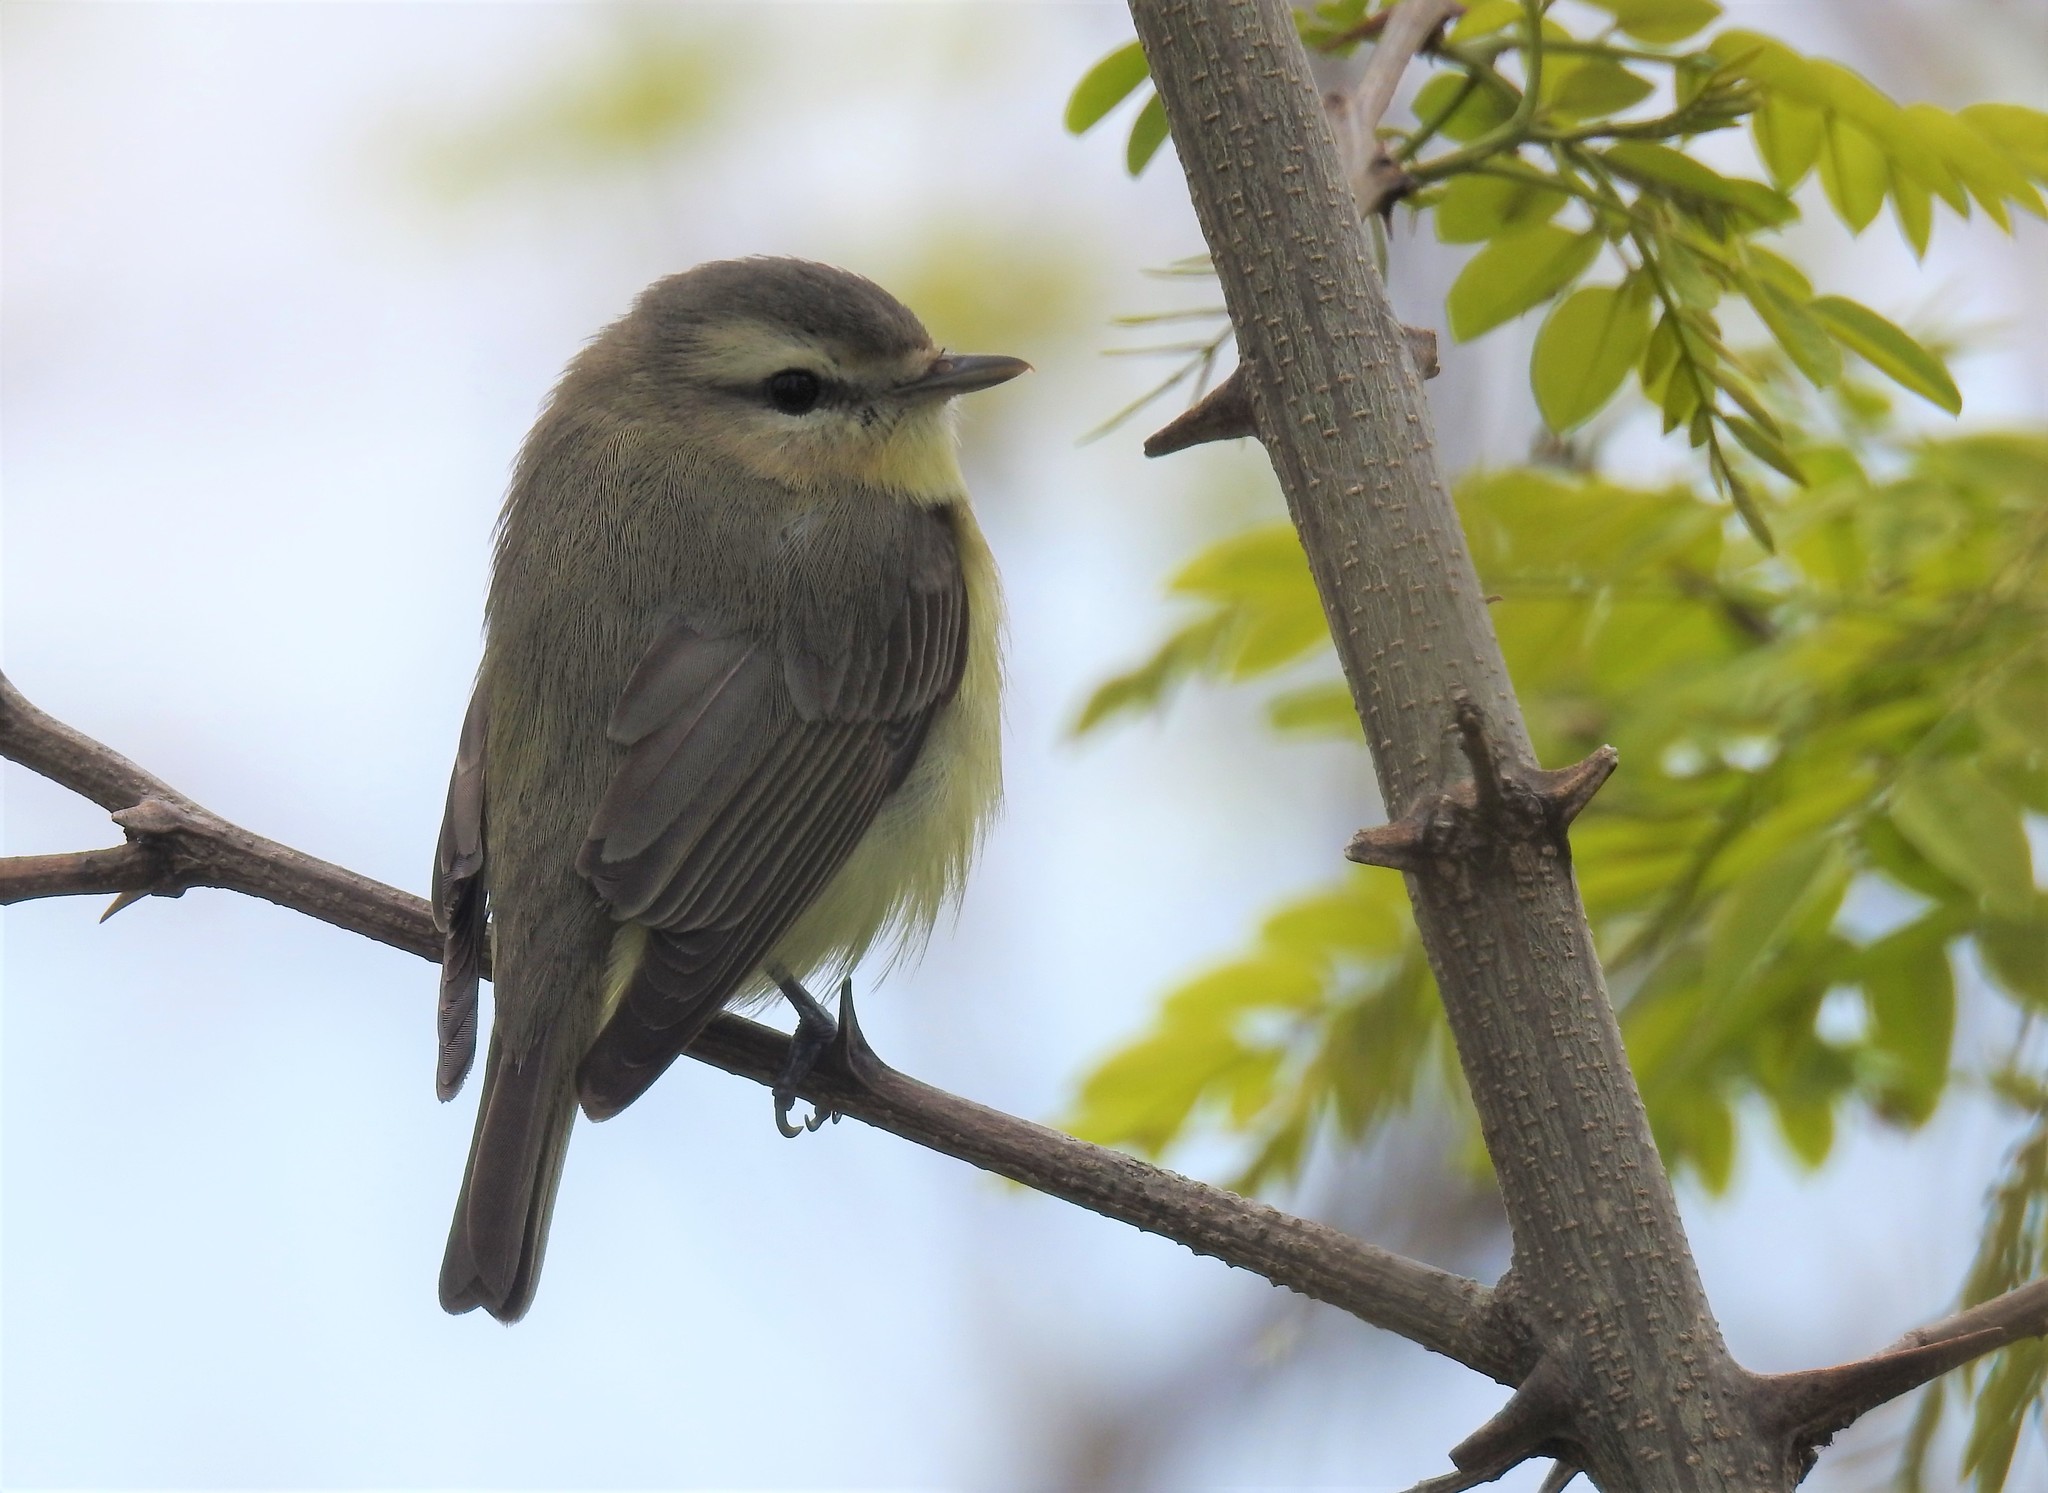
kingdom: Animalia
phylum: Chordata
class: Aves
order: Passeriformes
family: Vireonidae
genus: Vireo
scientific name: Vireo philadelphicus
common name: Philadelphia vireo
